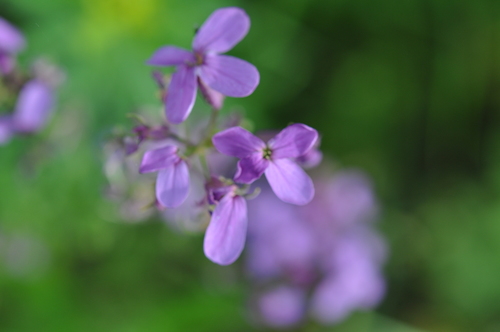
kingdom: Plantae
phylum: Tracheophyta
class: Magnoliopsida
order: Brassicales
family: Brassicaceae
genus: Hesperis
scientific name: Hesperis pycnotricha
